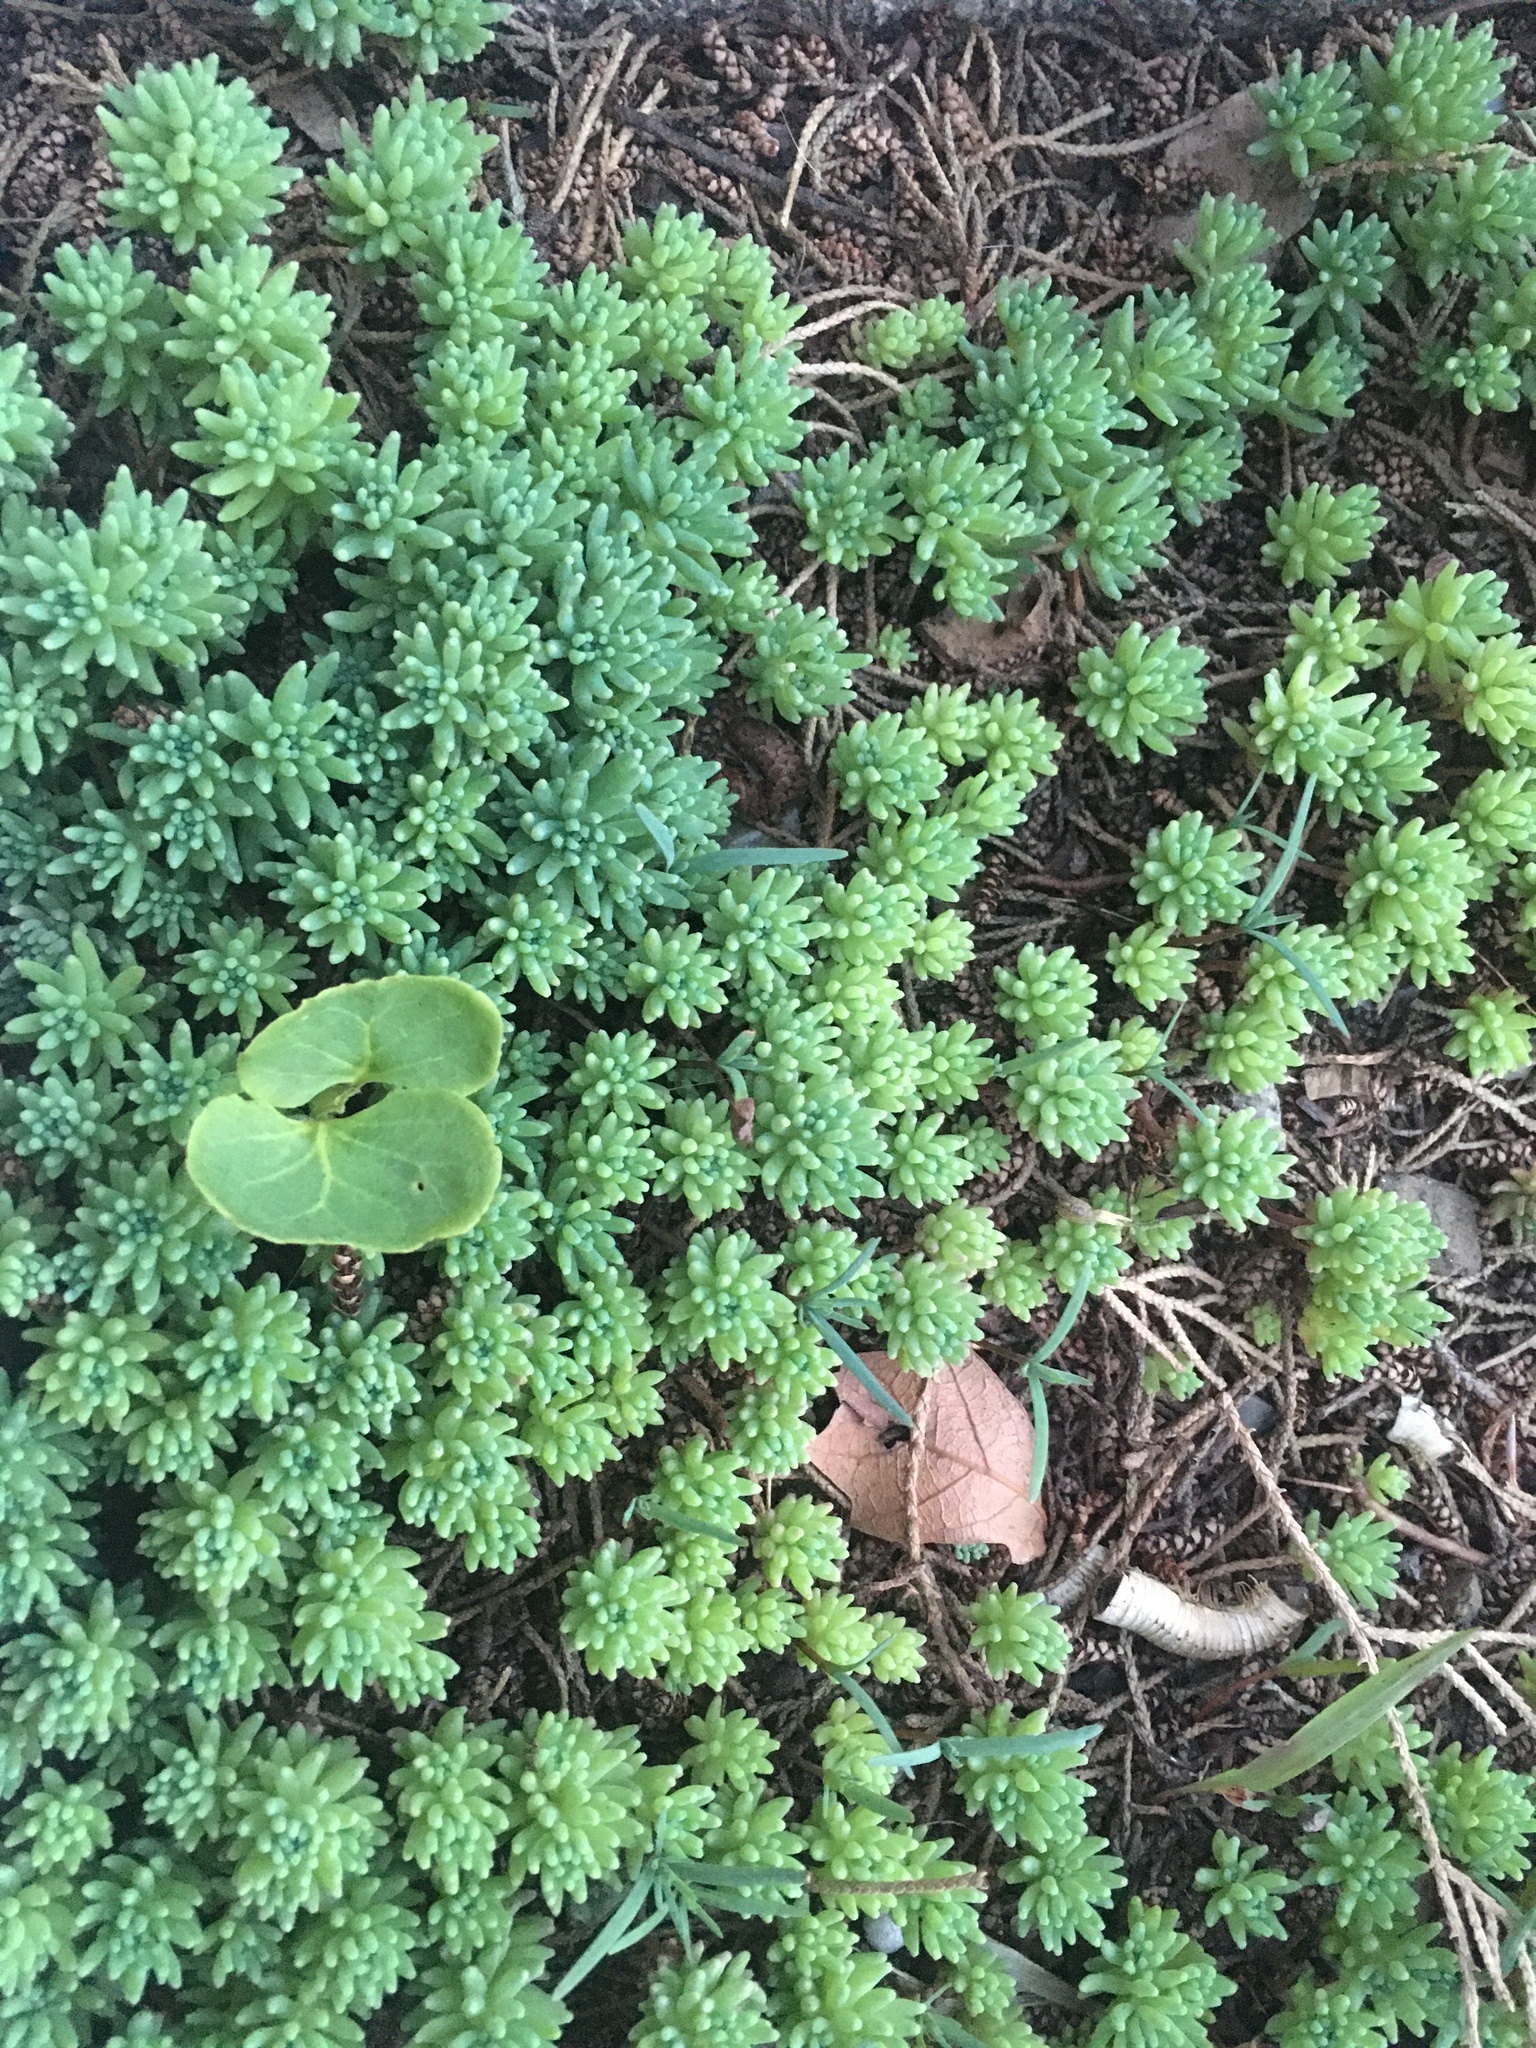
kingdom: Plantae
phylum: Tracheophyta
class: Magnoliopsida
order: Saxifragales
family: Crassulaceae
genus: Sedum
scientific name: Sedum hispanicum
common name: Spanish stonecrop
